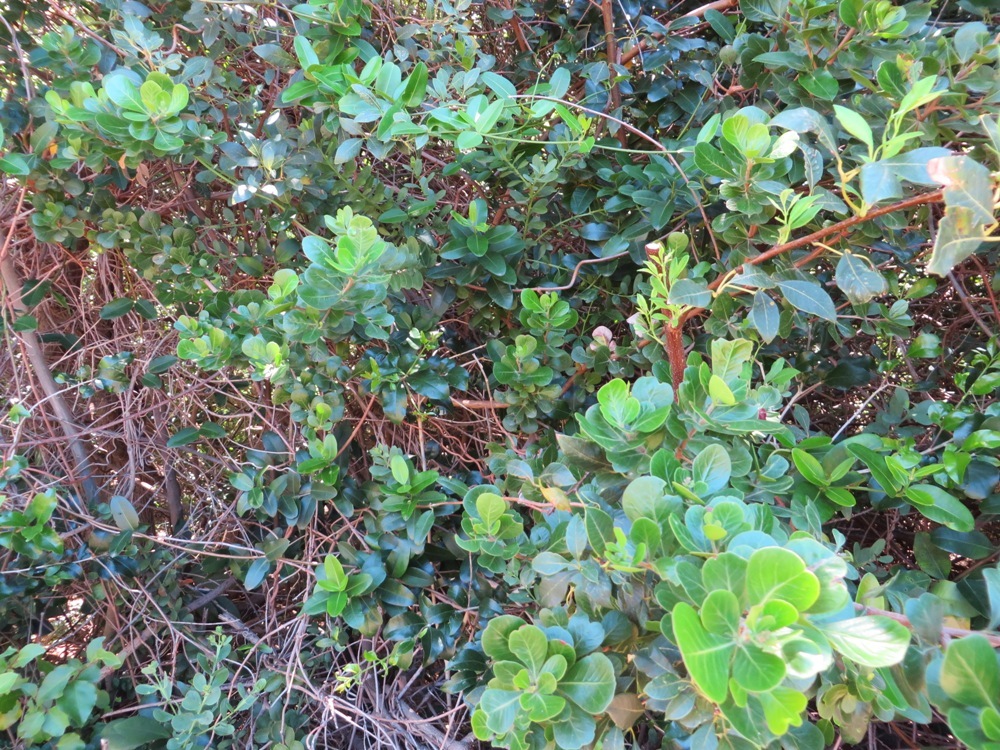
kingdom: Plantae
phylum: Tracheophyta
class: Magnoliopsida
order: Sapindales
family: Anacardiaceae
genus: Searsia
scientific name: Searsia lucida
